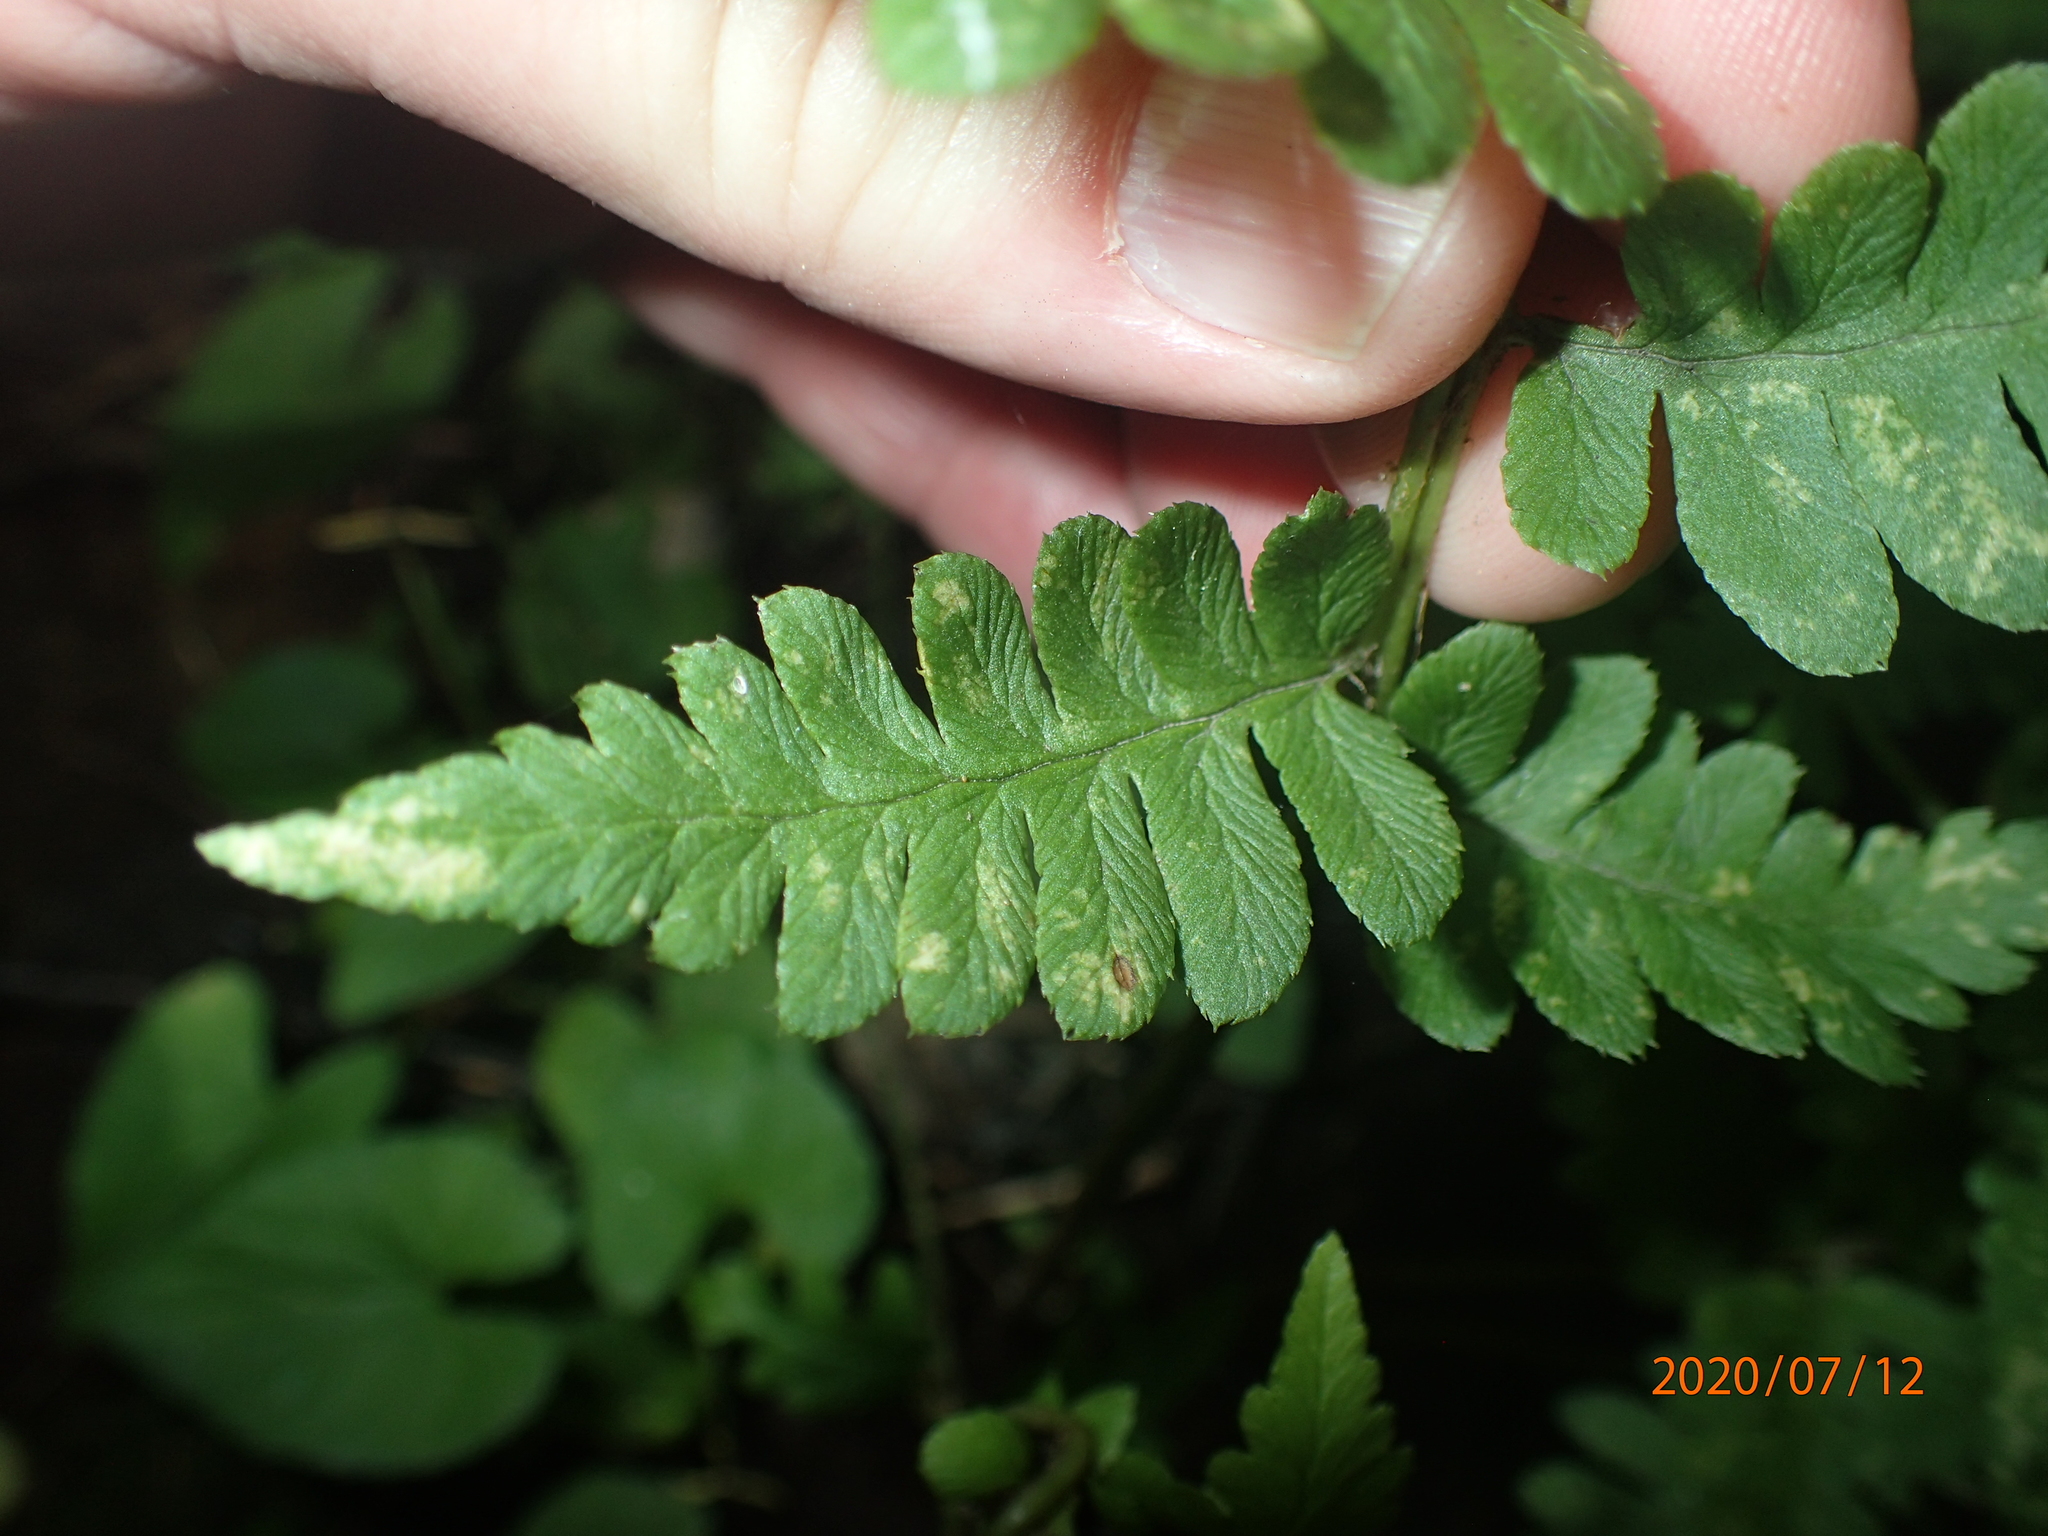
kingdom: Plantae
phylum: Tracheophyta
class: Polypodiopsida
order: Polypodiales
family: Dryopteridaceae
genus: Dryopteris
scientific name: Dryopteris clintoniana
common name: Clinton's wood fern
